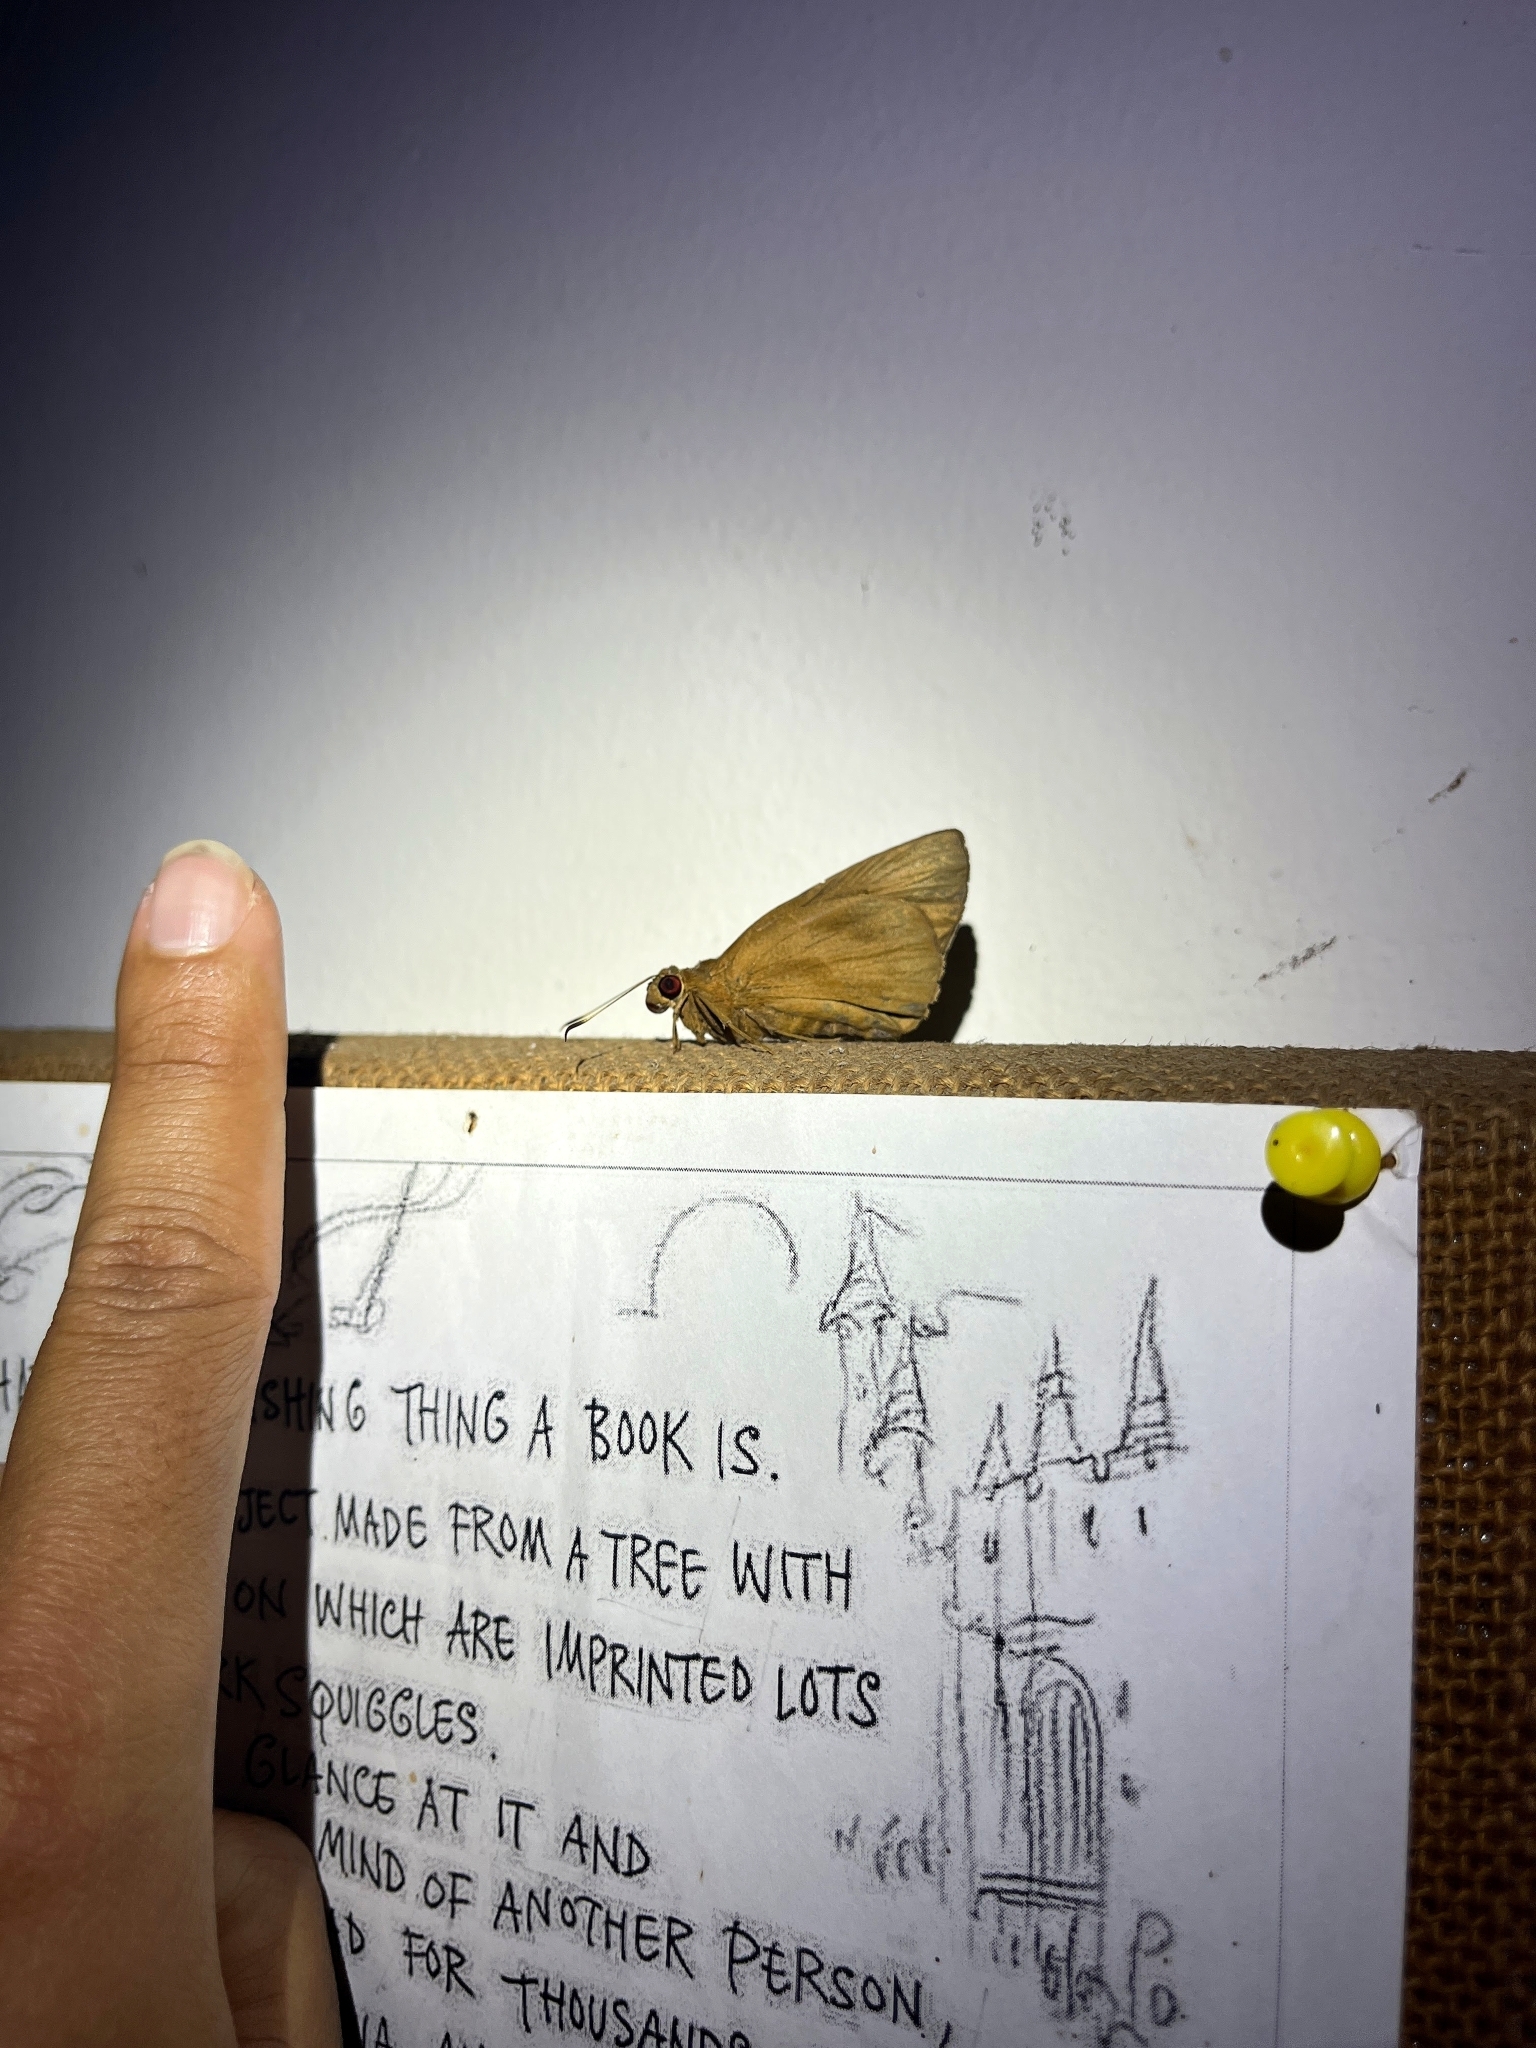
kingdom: Animalia
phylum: Arthropoda
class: Insecta
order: Lepidoptera
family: Hesperiidae
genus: Erionota
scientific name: Erionota torus
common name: Rounded palm-redeye
